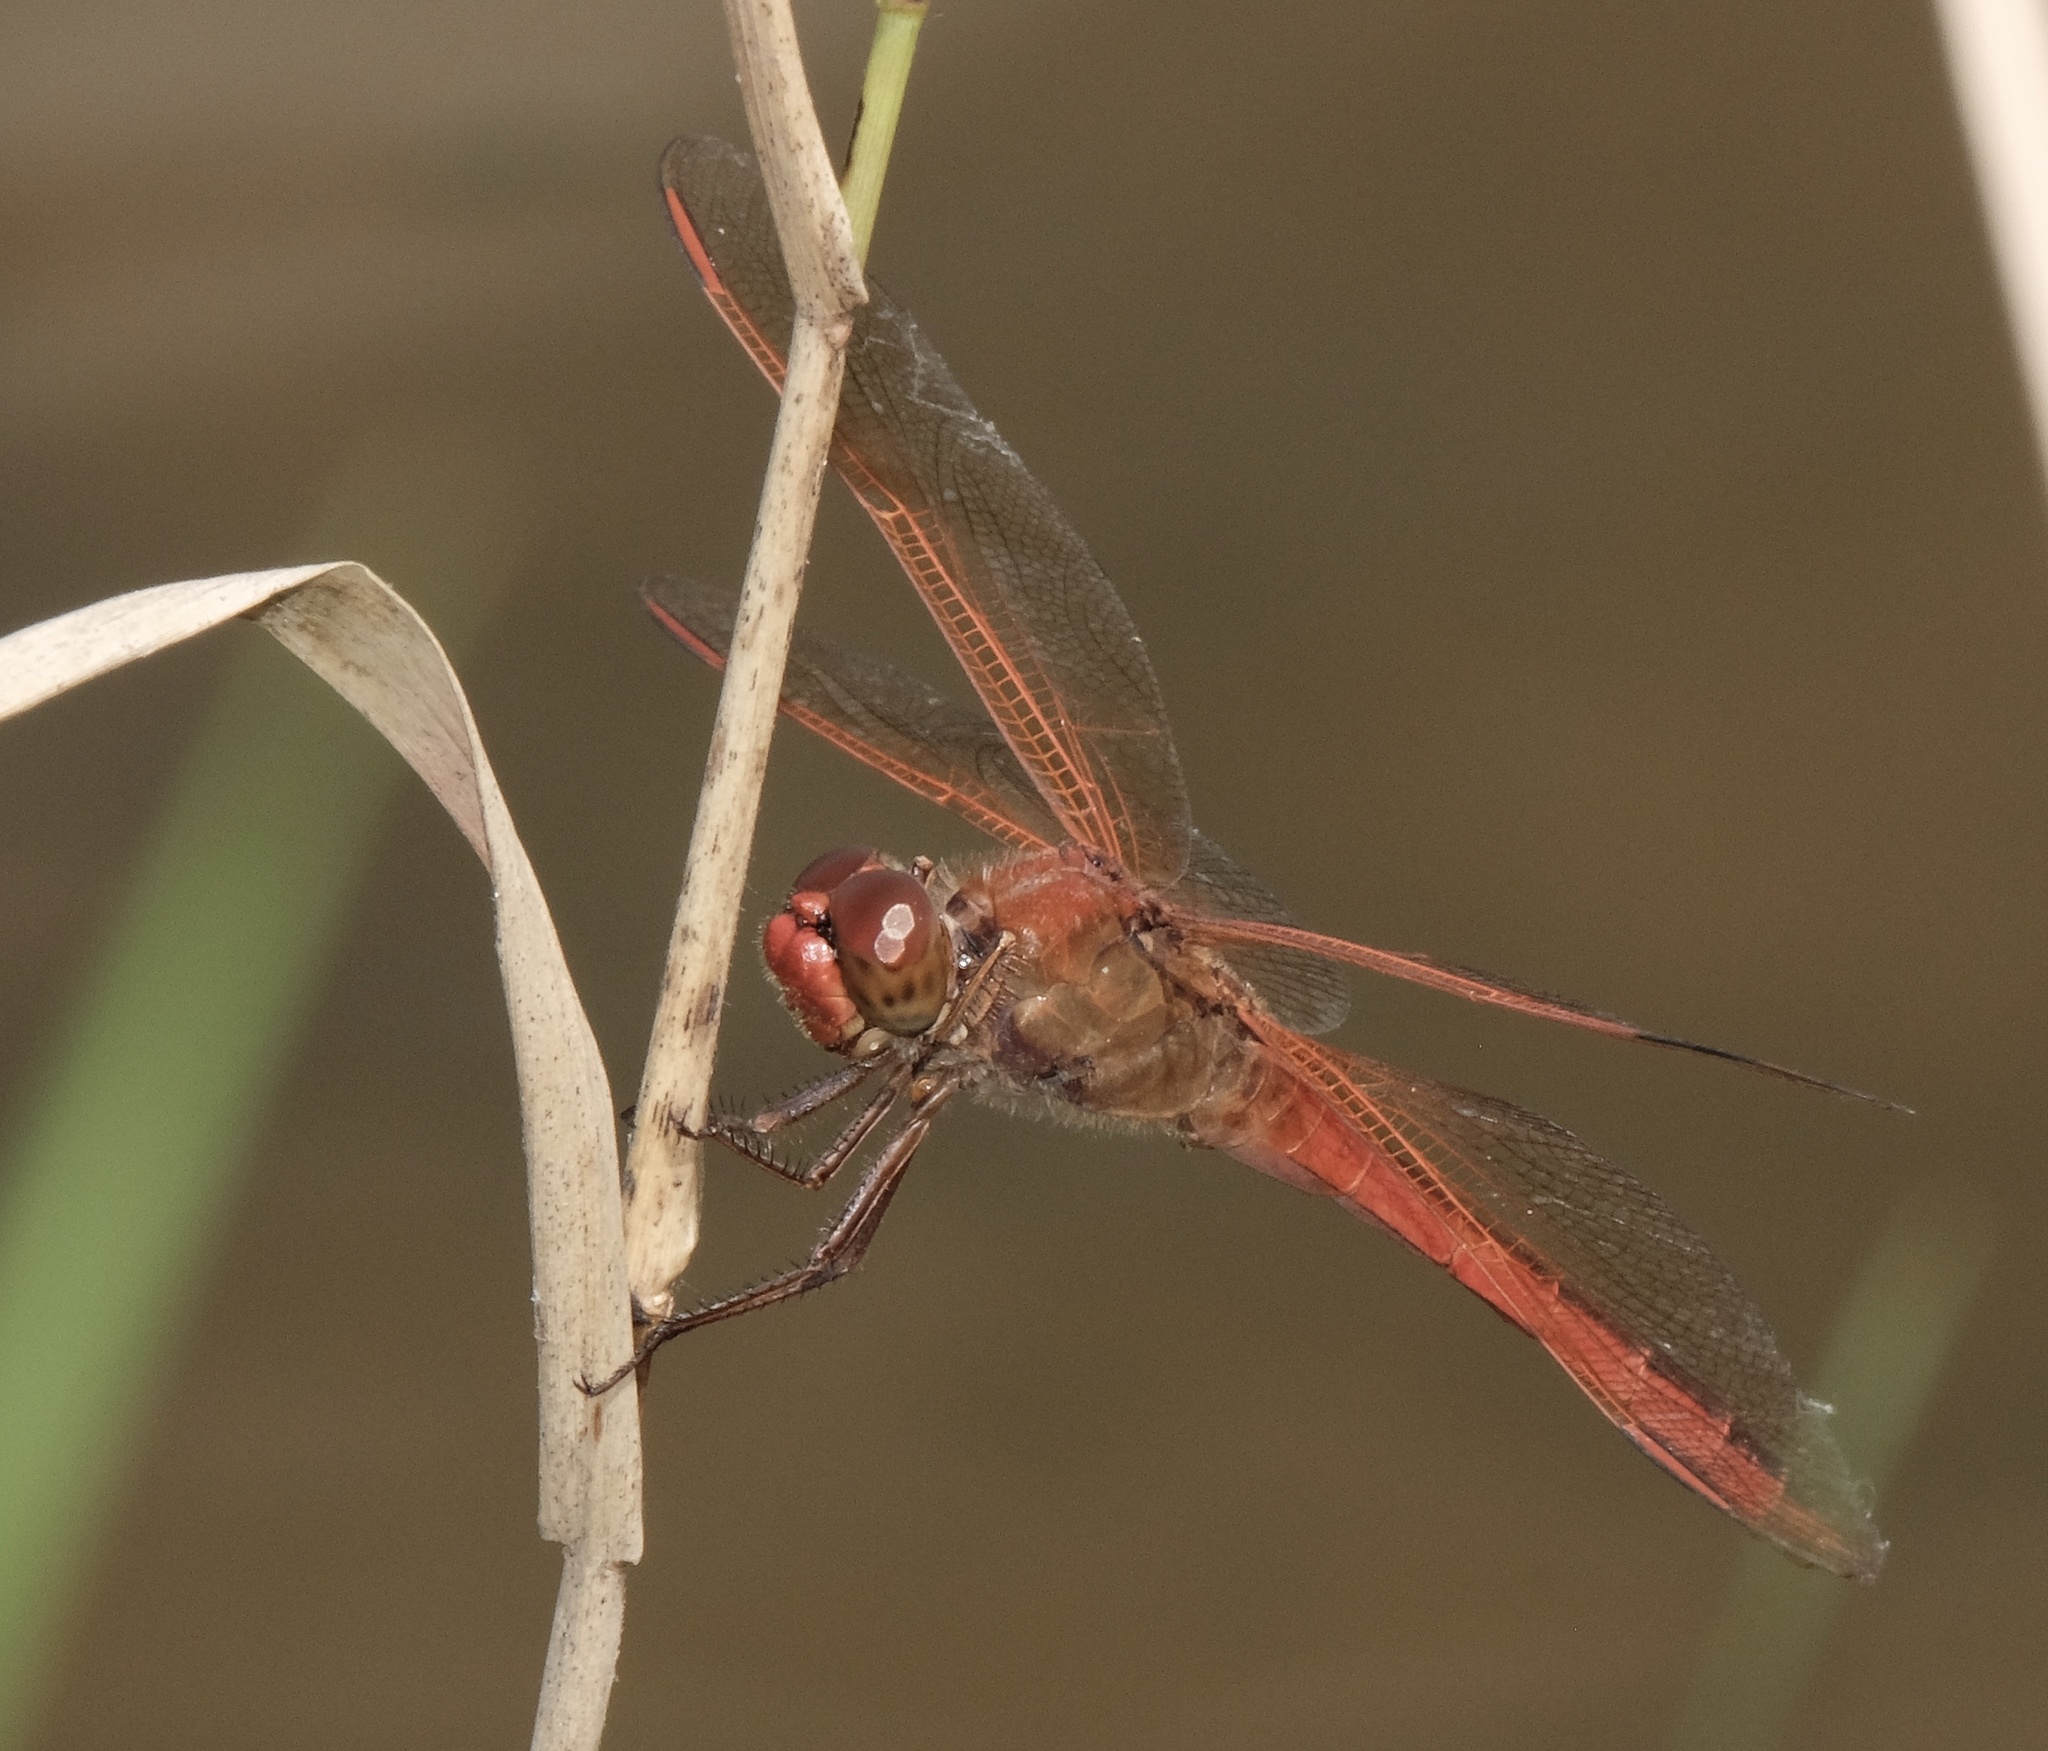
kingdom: Animalia
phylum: Arthropoda
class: Insecta
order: Odonata
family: Libellulidae
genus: Libellula
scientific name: Libellula needhami
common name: Needham's skimmer
